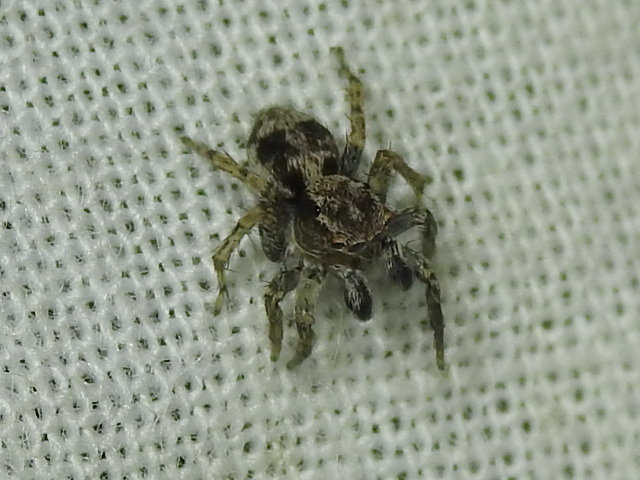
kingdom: Animalia
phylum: Arthropoda
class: Arachnida
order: Araneae
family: Salticidae
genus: Naphrys
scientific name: Naphrys pulex
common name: Flea jumping spider
